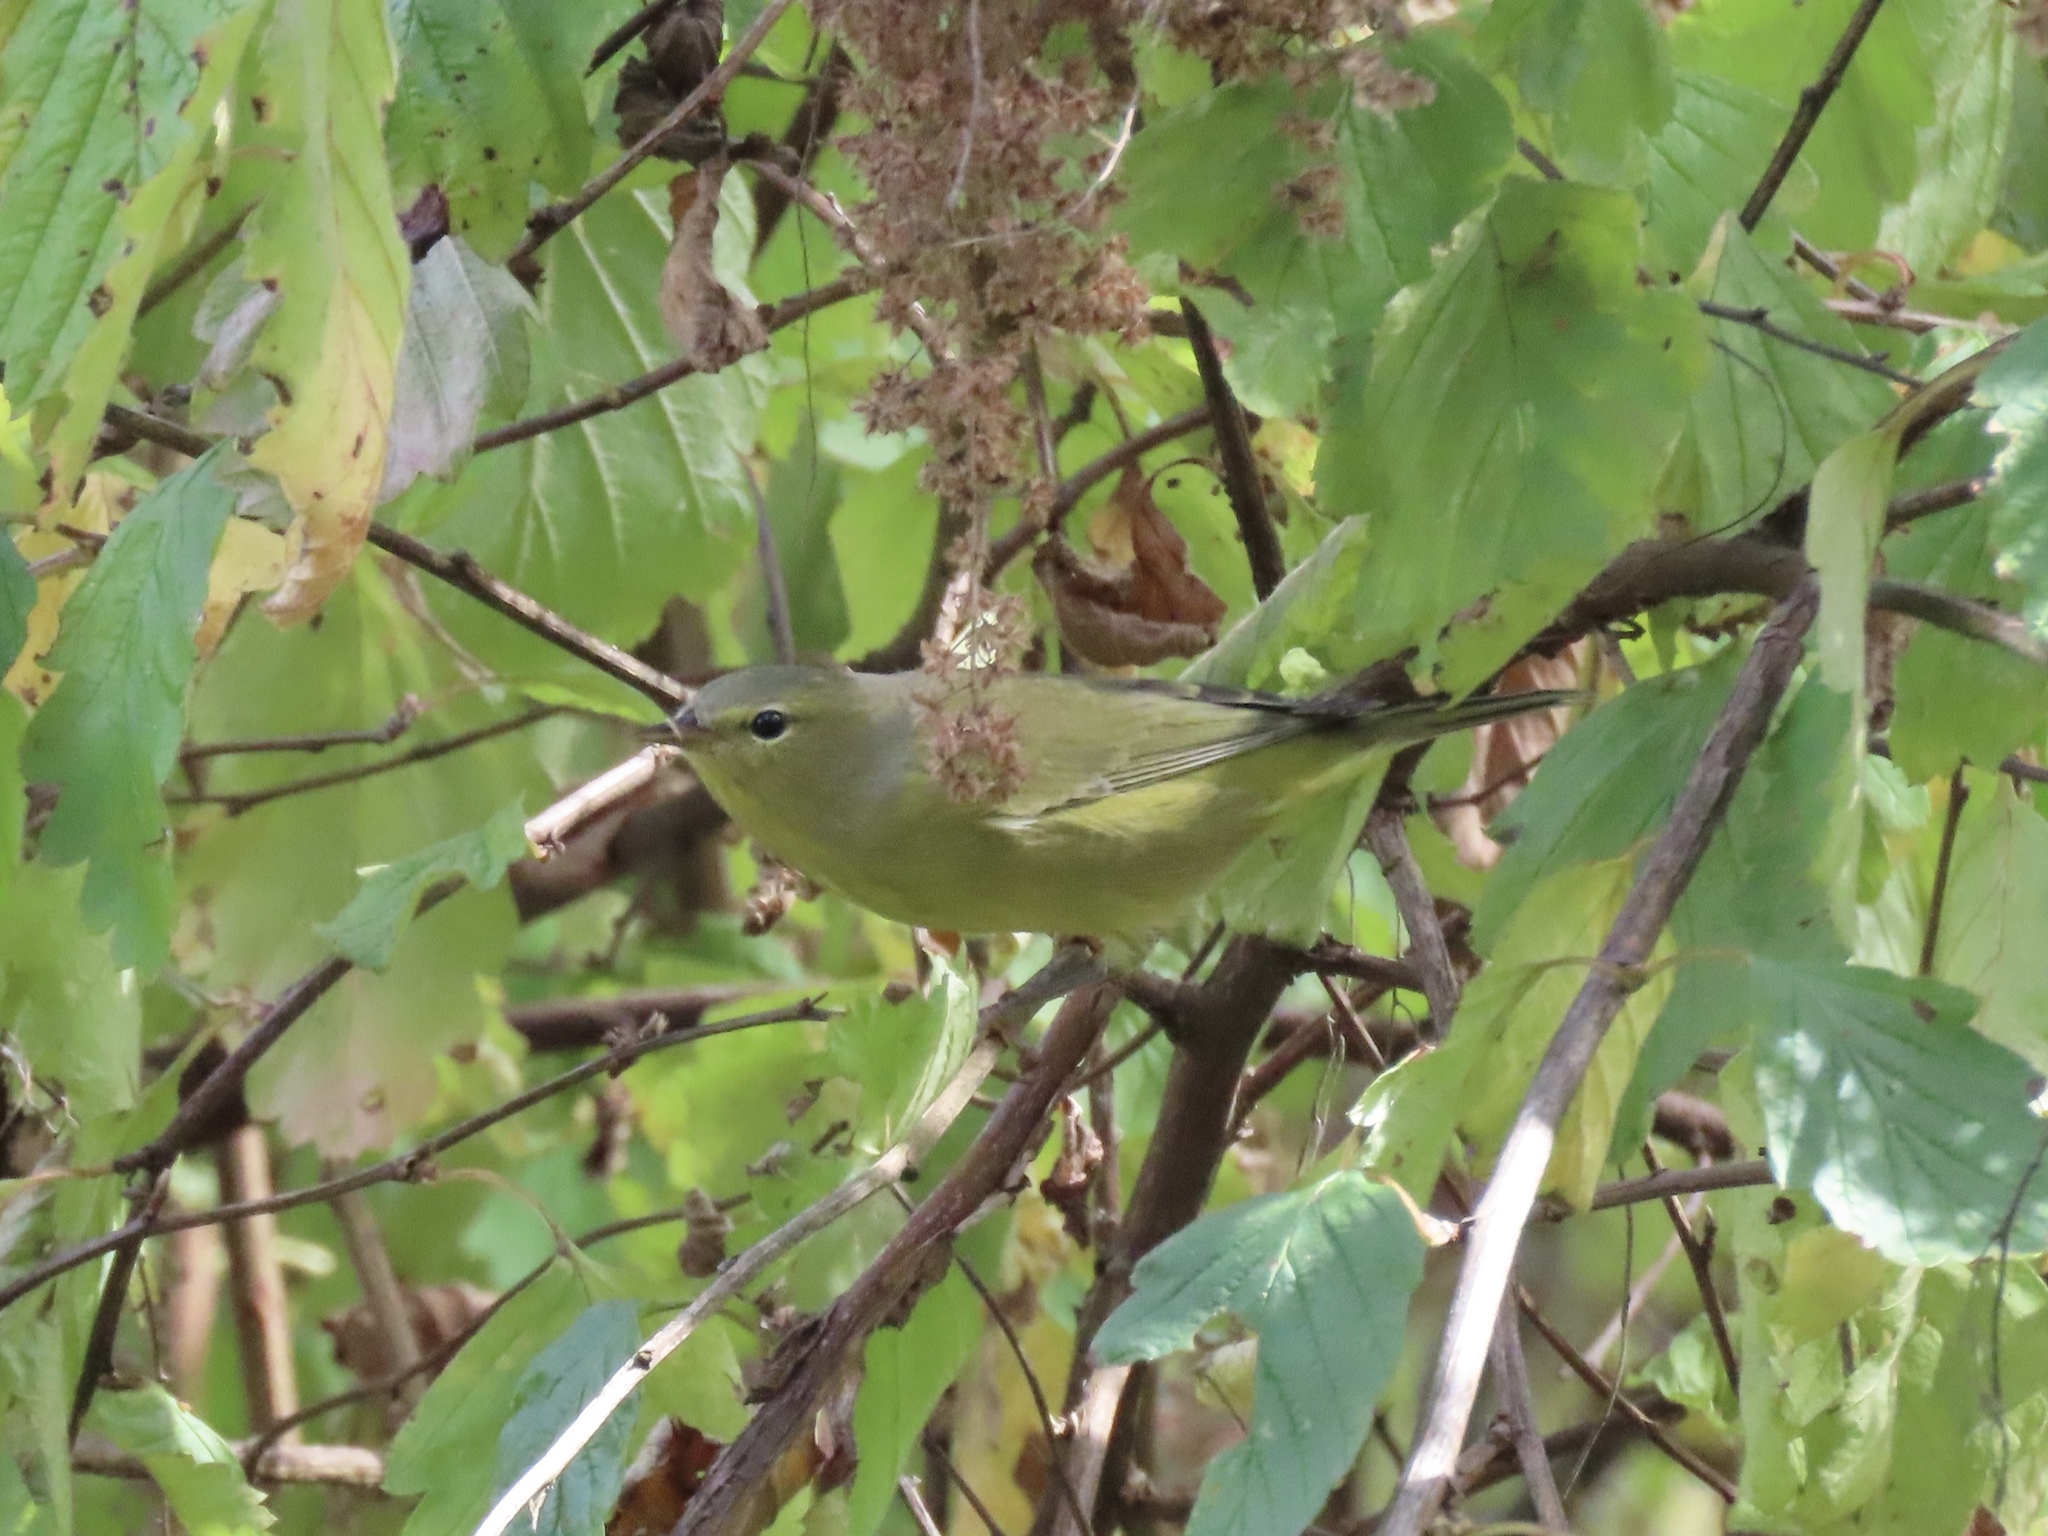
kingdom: Animalia
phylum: Chordata
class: Aves
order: Passeriformes
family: Parulidae
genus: Leiothlypis
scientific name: Leiothlypis celata
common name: Orange-crowned warbler
